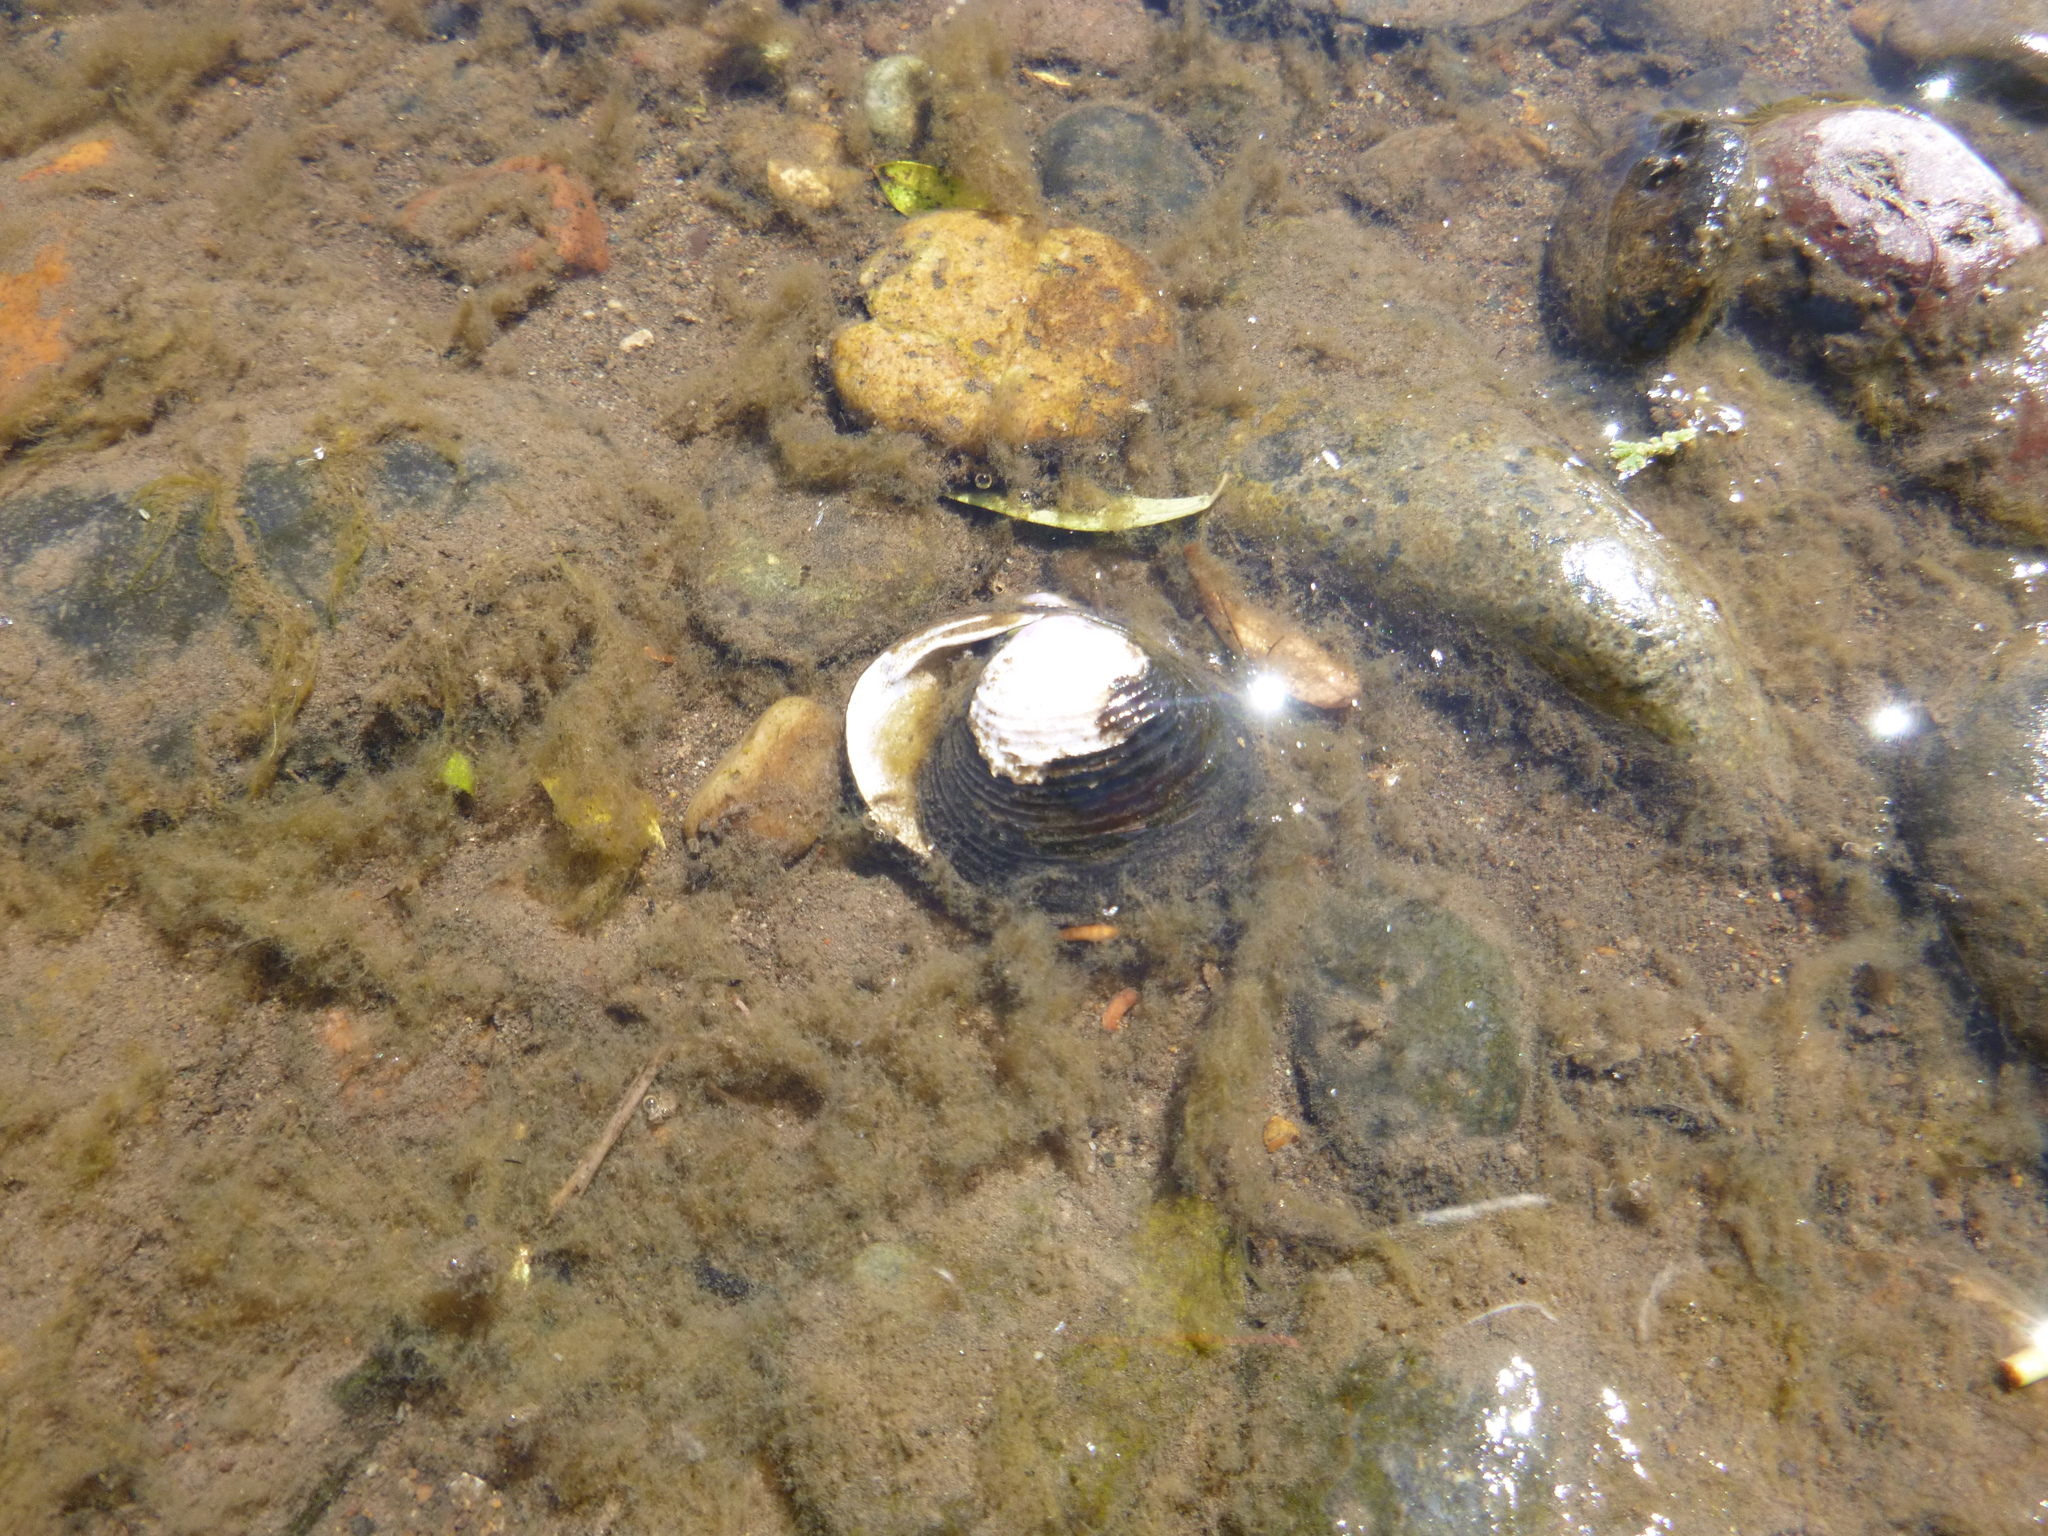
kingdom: Animalia
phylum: Mollusca
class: Bivalvia
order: Venerida
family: Cyrenidae
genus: Corbicula
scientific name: Corbicula fluminea
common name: Asian clam
